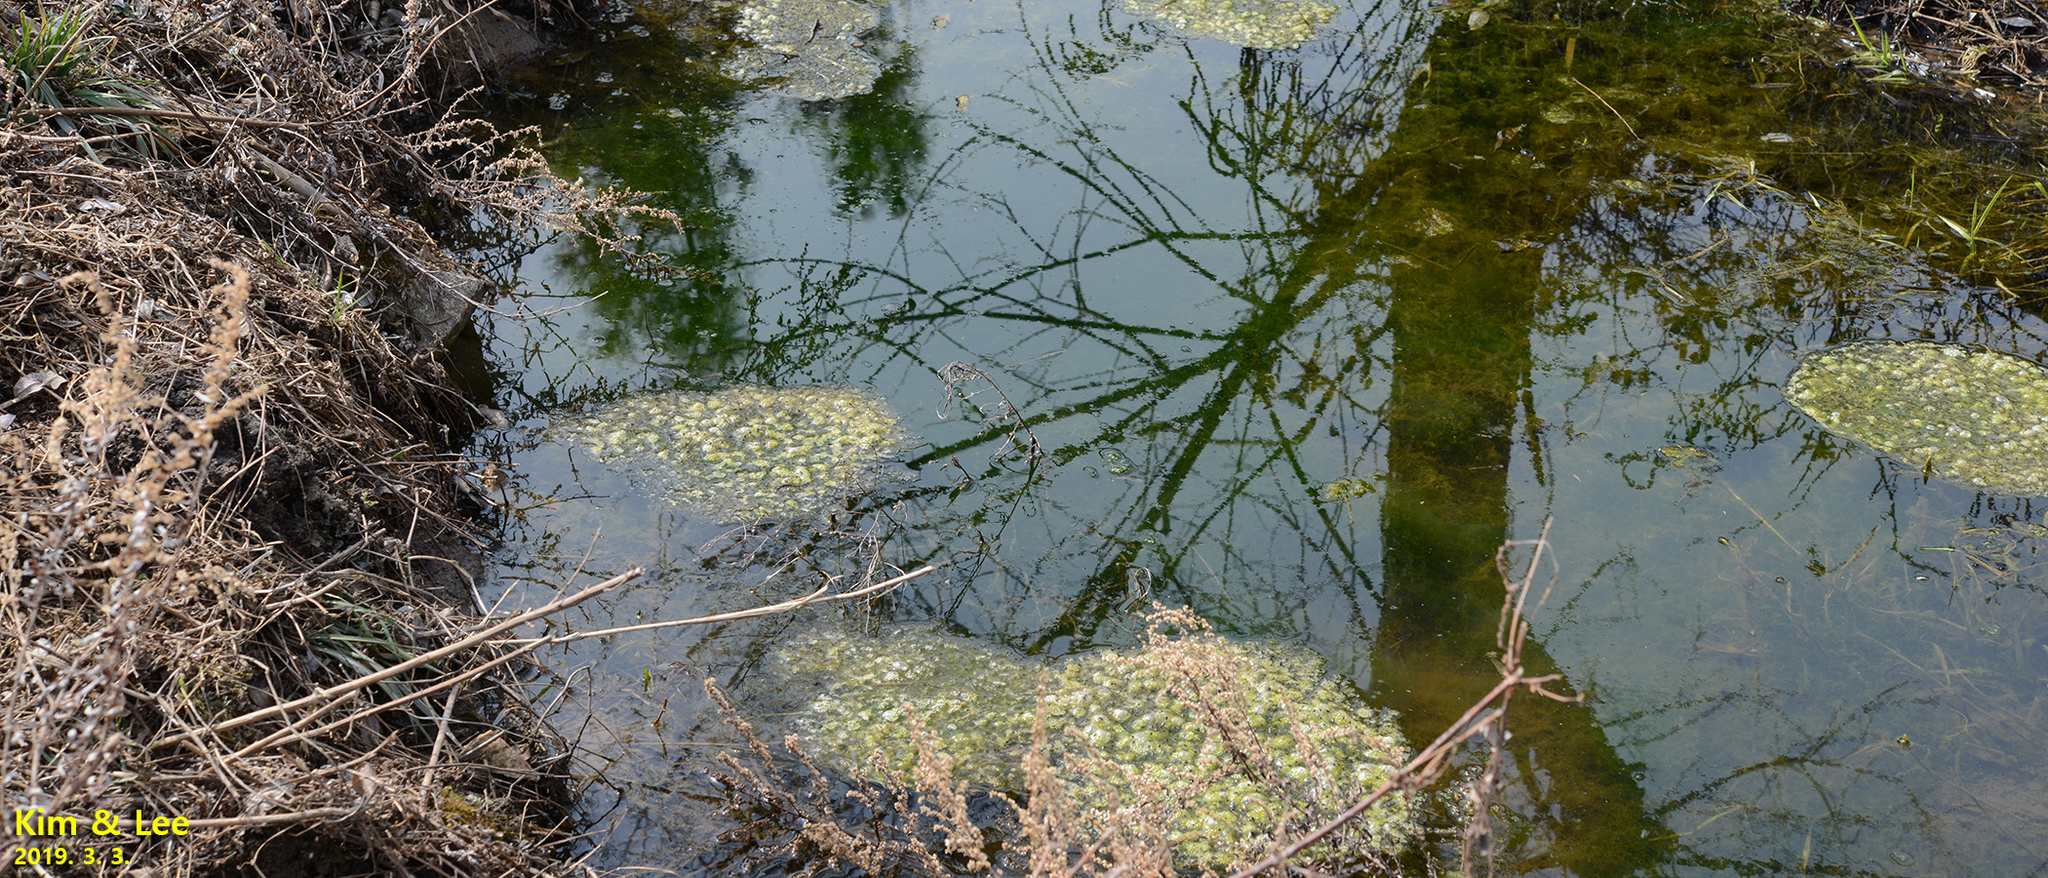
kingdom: Animalia
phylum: Chordata
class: Amphibia
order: Anura
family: Ranidae
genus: Rana
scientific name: Rana uenoi
